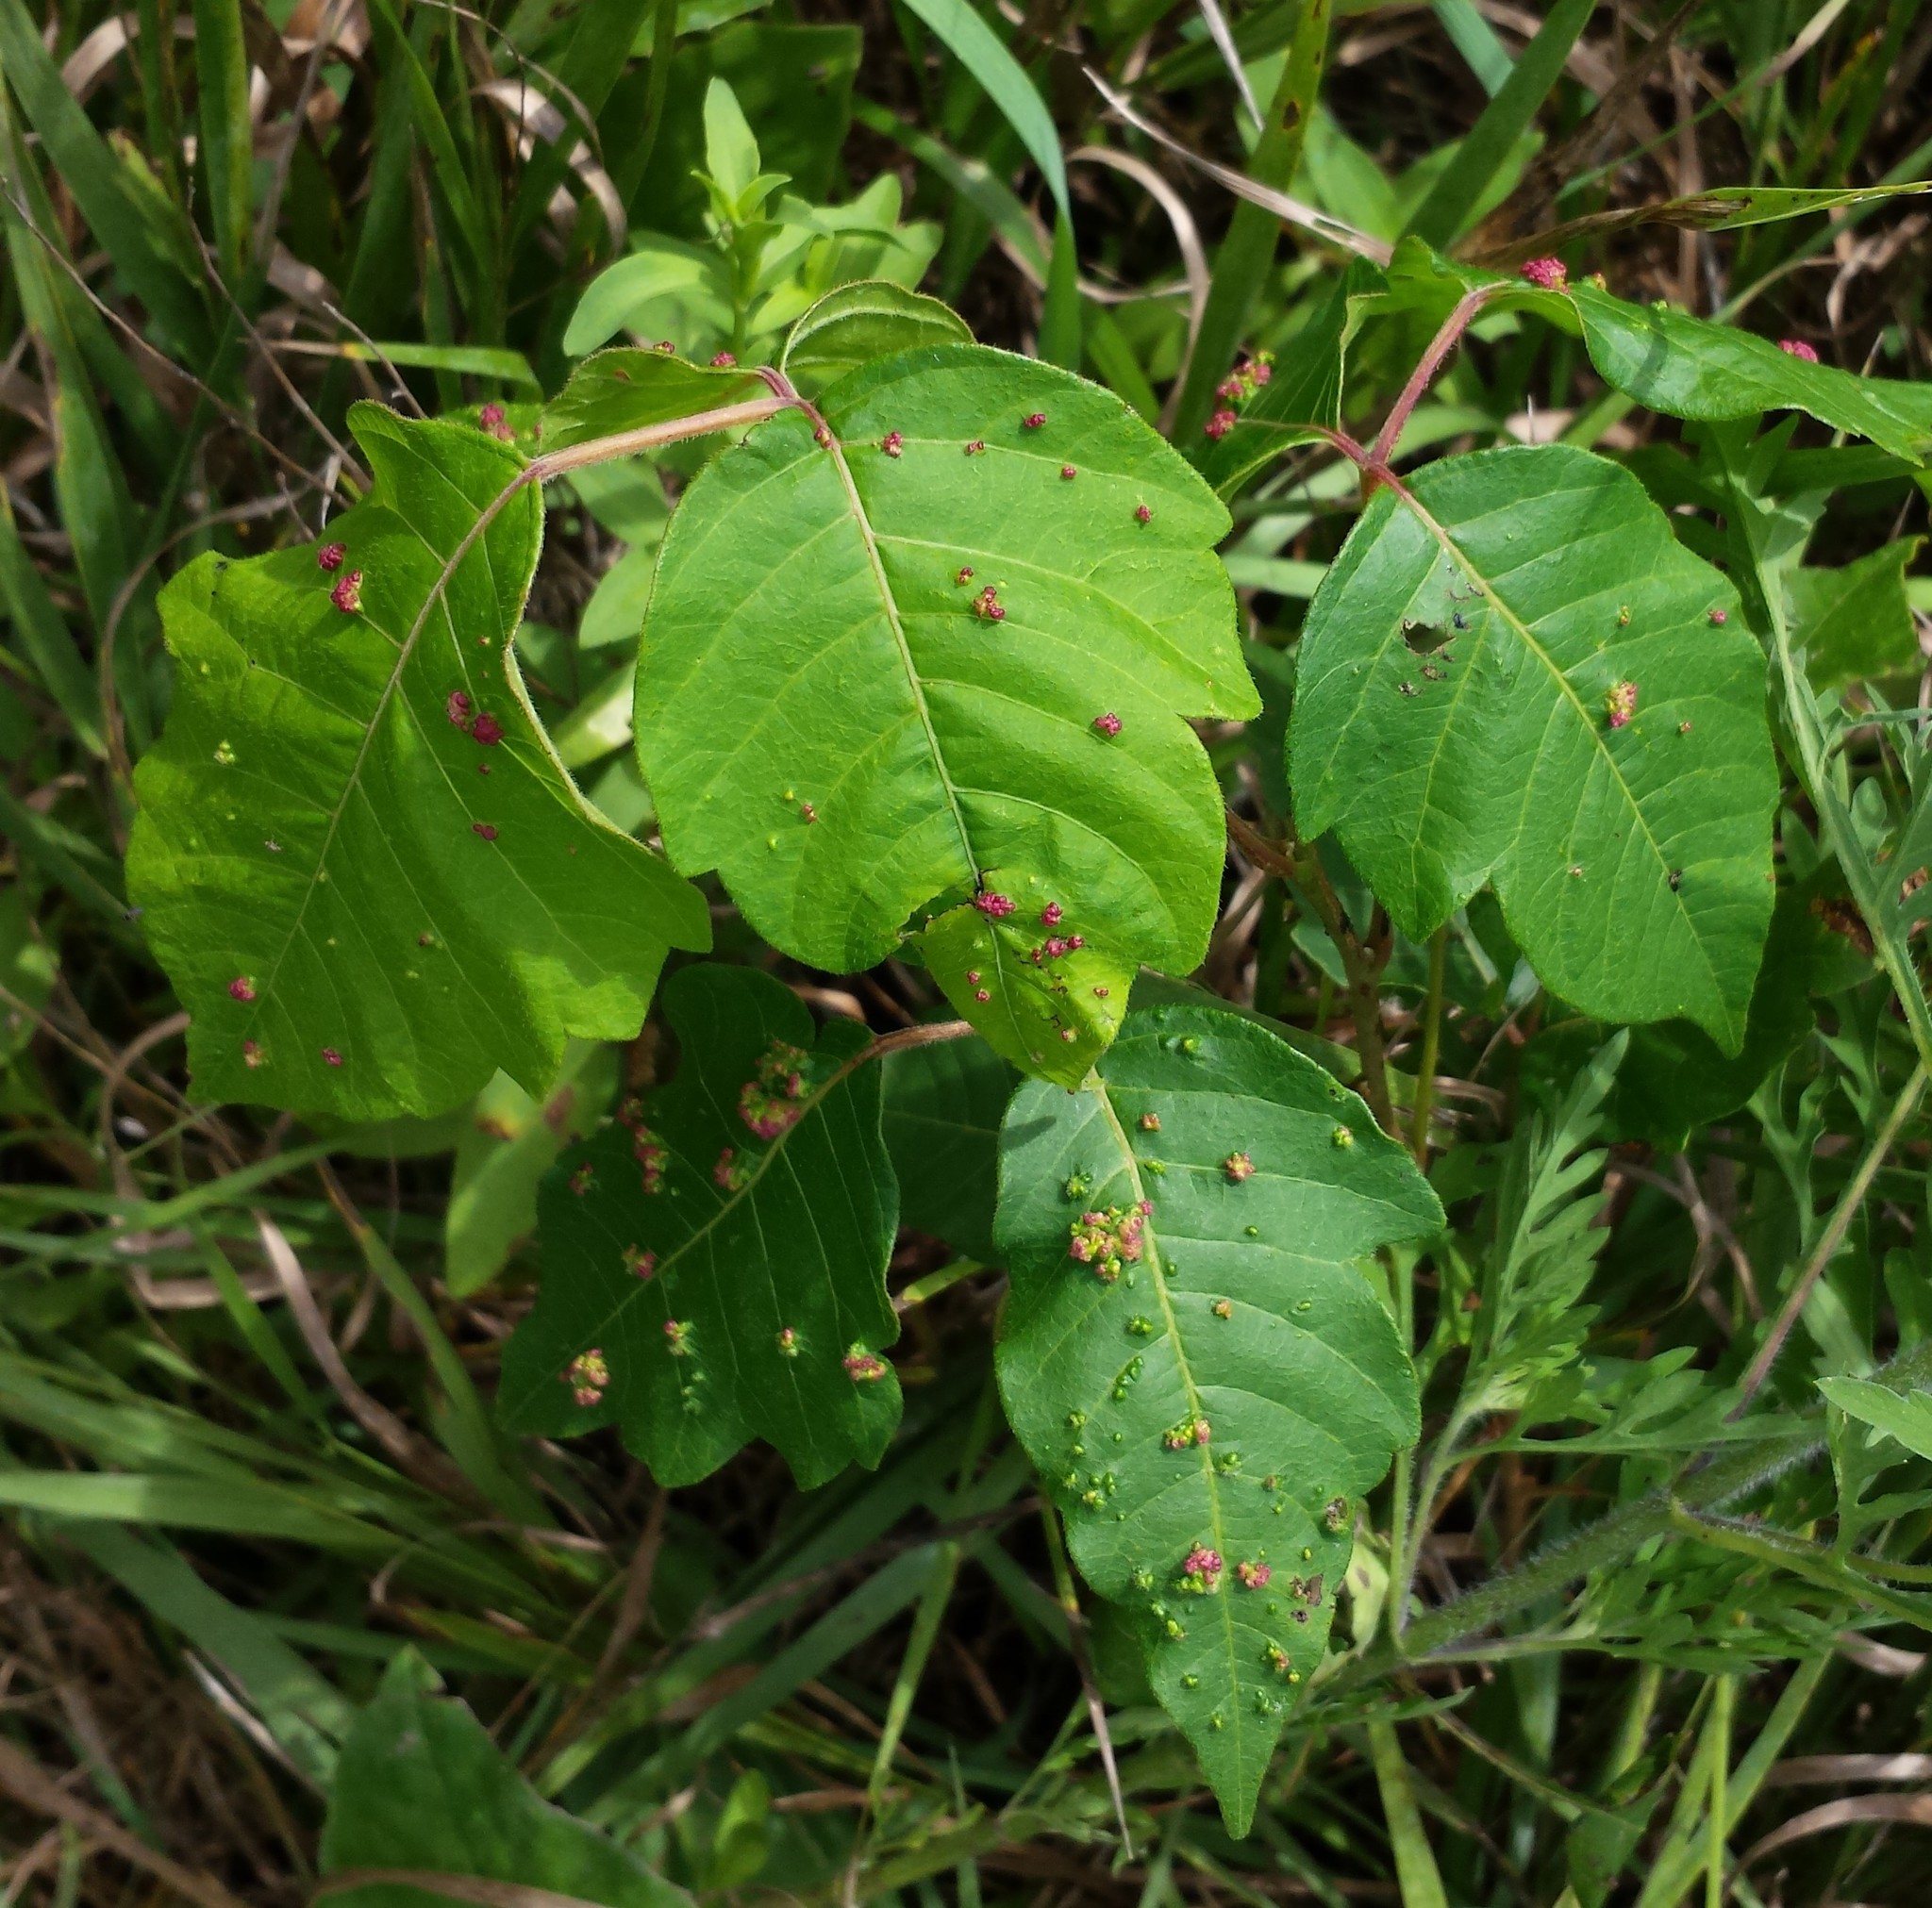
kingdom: Animalia
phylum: Arthropoda
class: Arachnida
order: Trombidiformes
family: Eriophyidae
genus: Aculops
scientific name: Aculops
